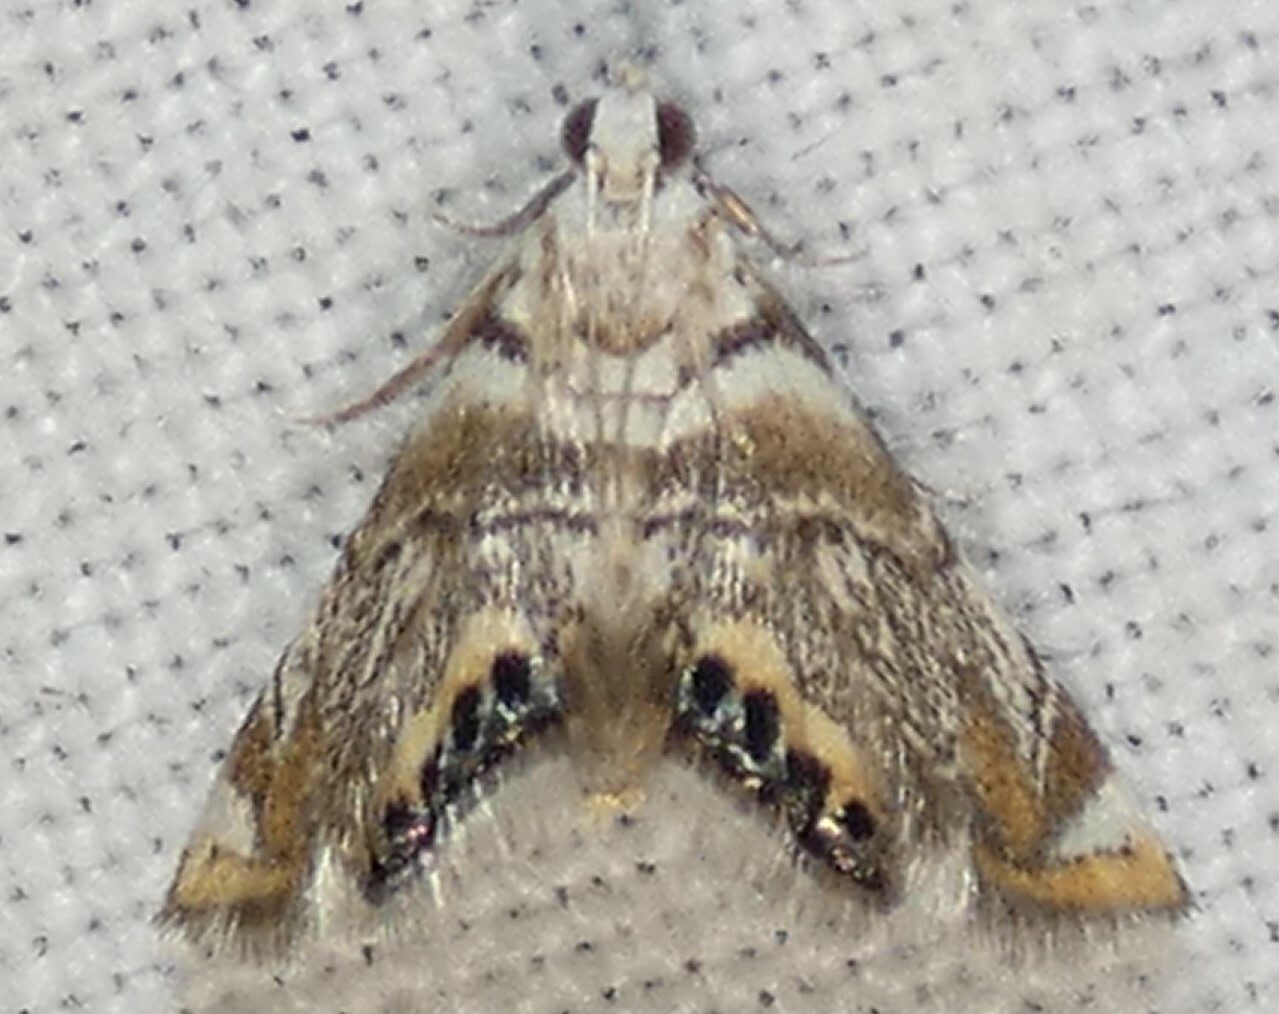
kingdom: Animalia
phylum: Arthropoda
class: Insecta
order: Lepidoptera
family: Crambidae
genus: Eoparargyractis
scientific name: Eoparargyractis irroratalis
